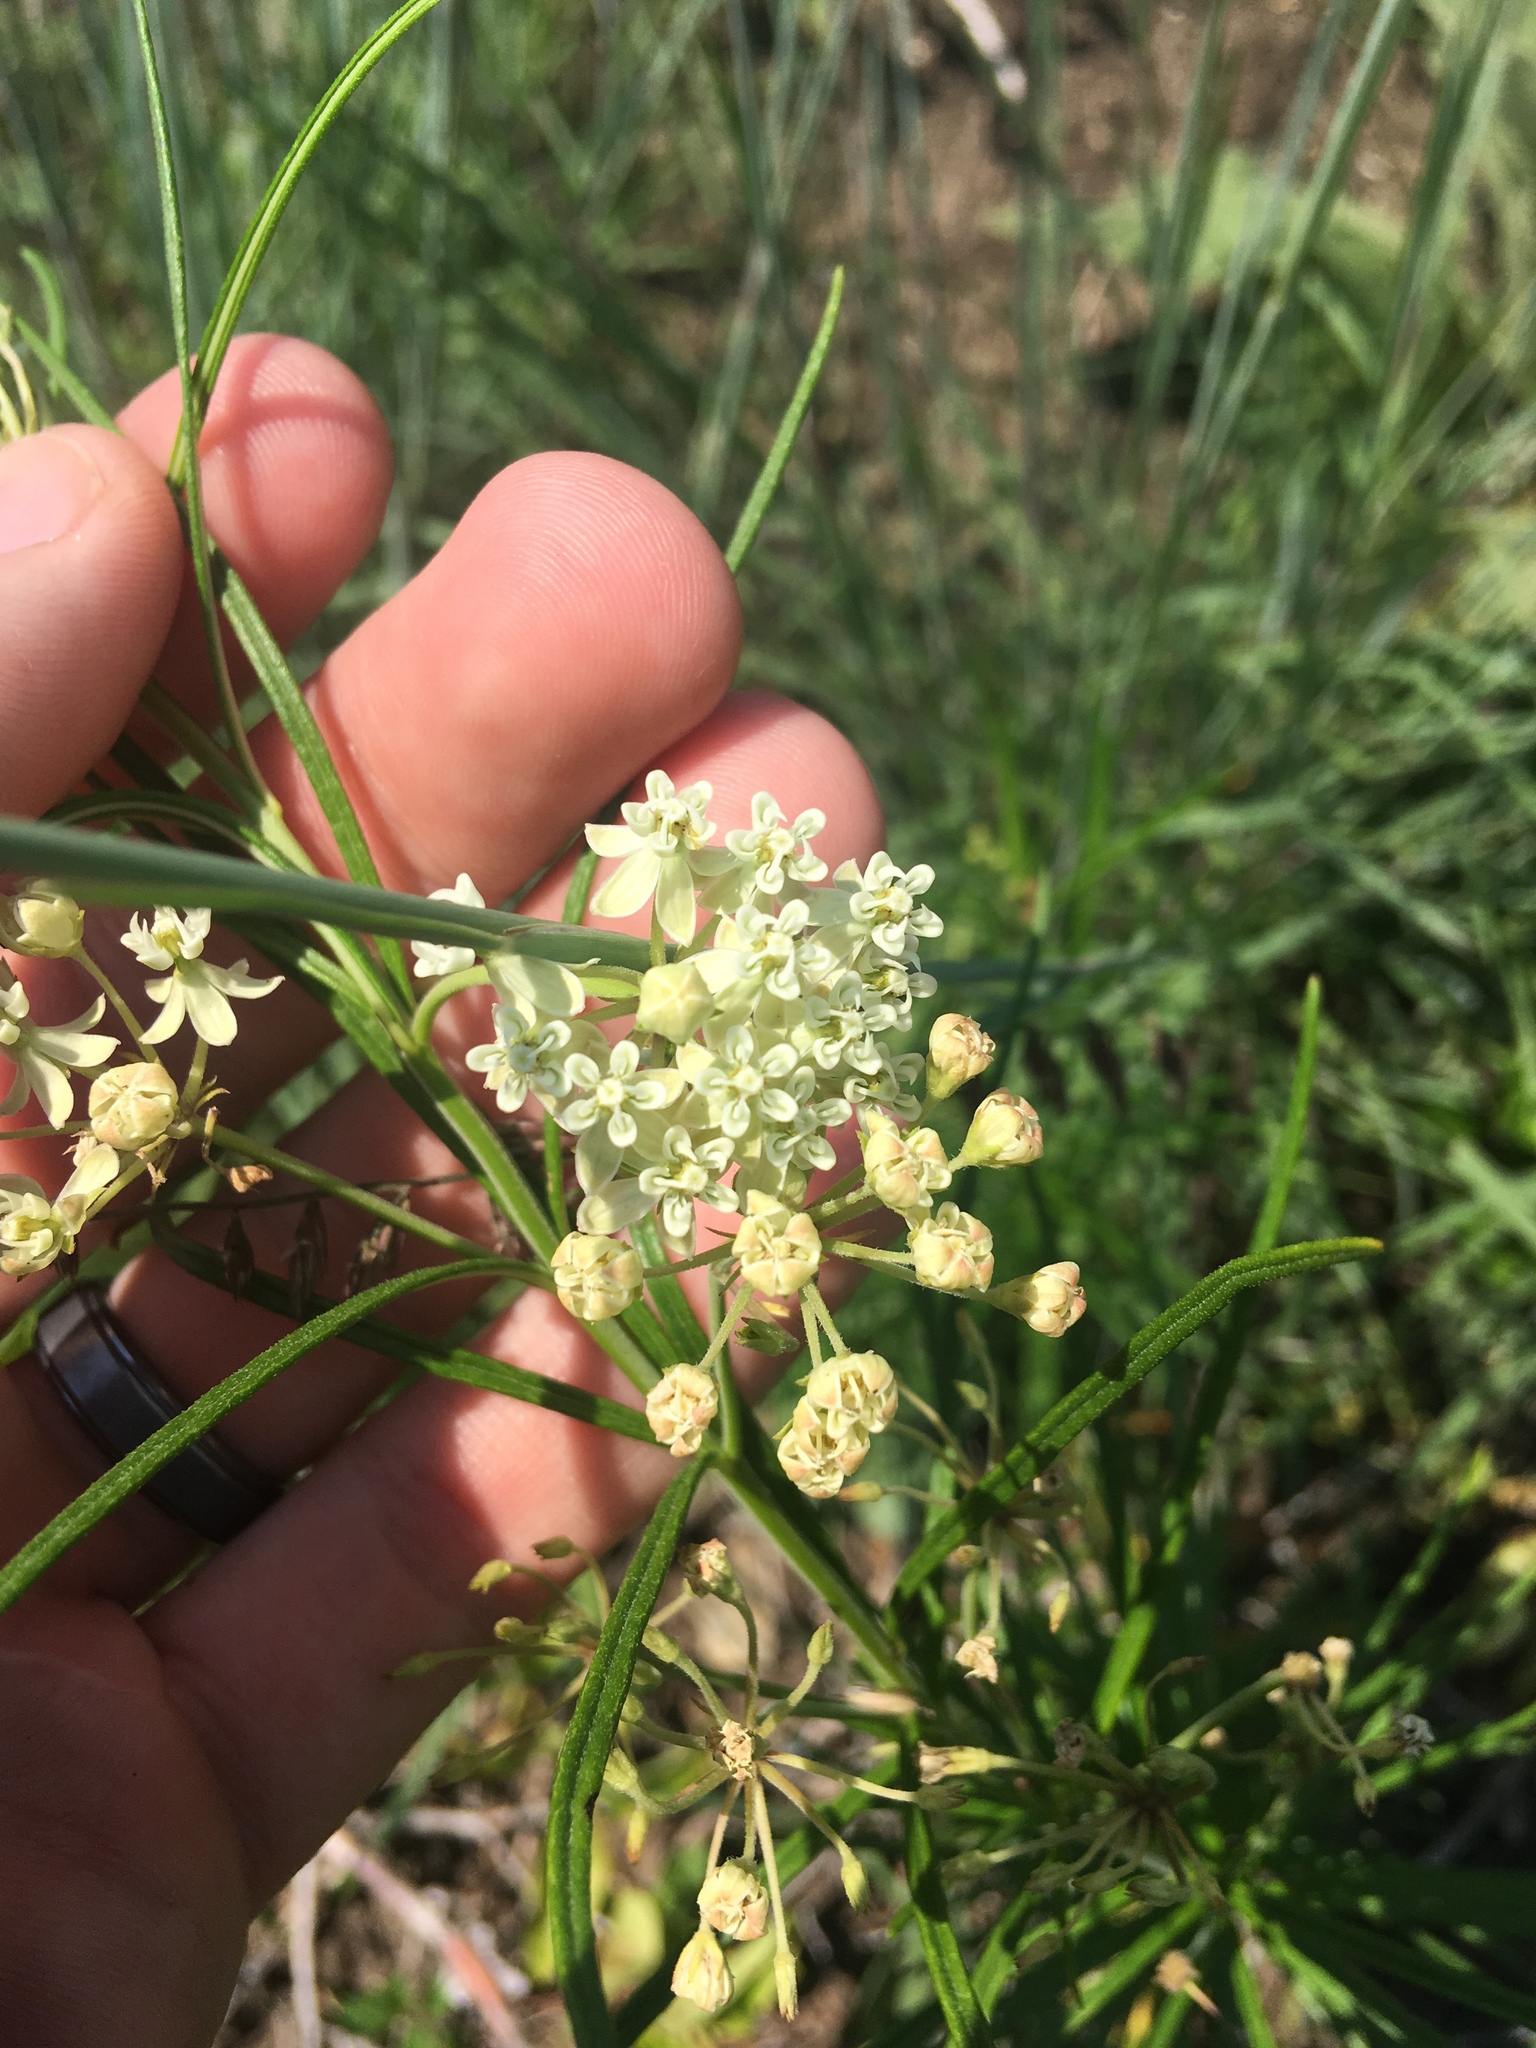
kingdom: Plantae
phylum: Tracheophyta
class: Magnoliopsida
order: Gentianales
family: Apocynaceae
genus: Asclepias
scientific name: Asclepias verticillata
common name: Eastern whorled milkweed
